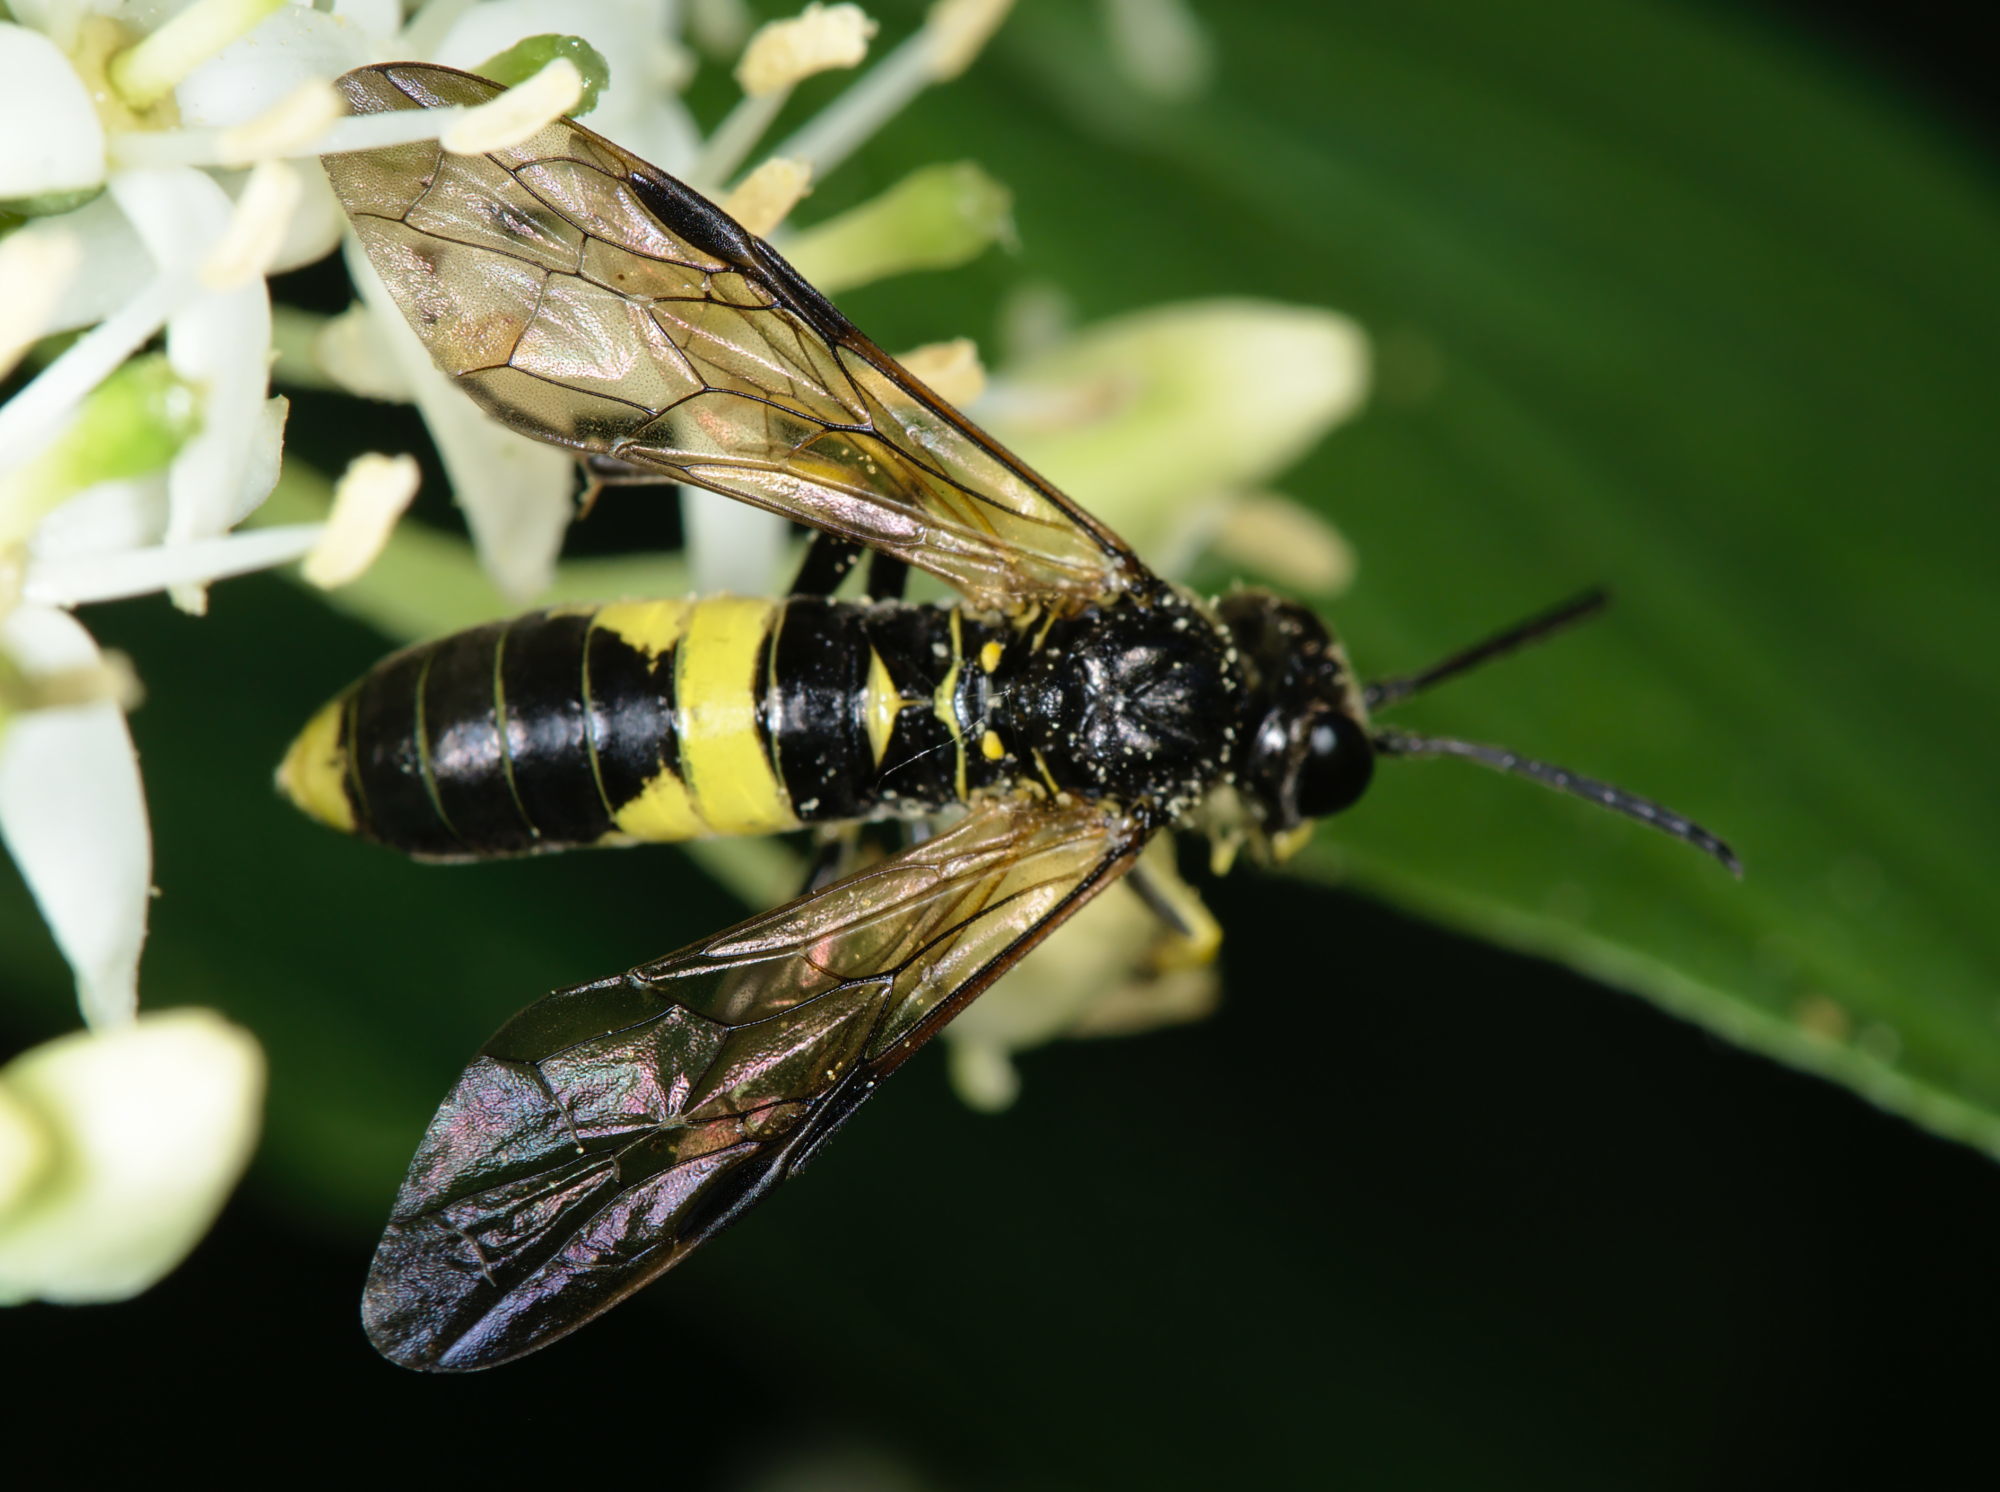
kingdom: Animalia
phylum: Arthropoda
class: Insecta
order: Hymenoptera
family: Tenthredinidae
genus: Tenthredo
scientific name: Tenthredo temula
